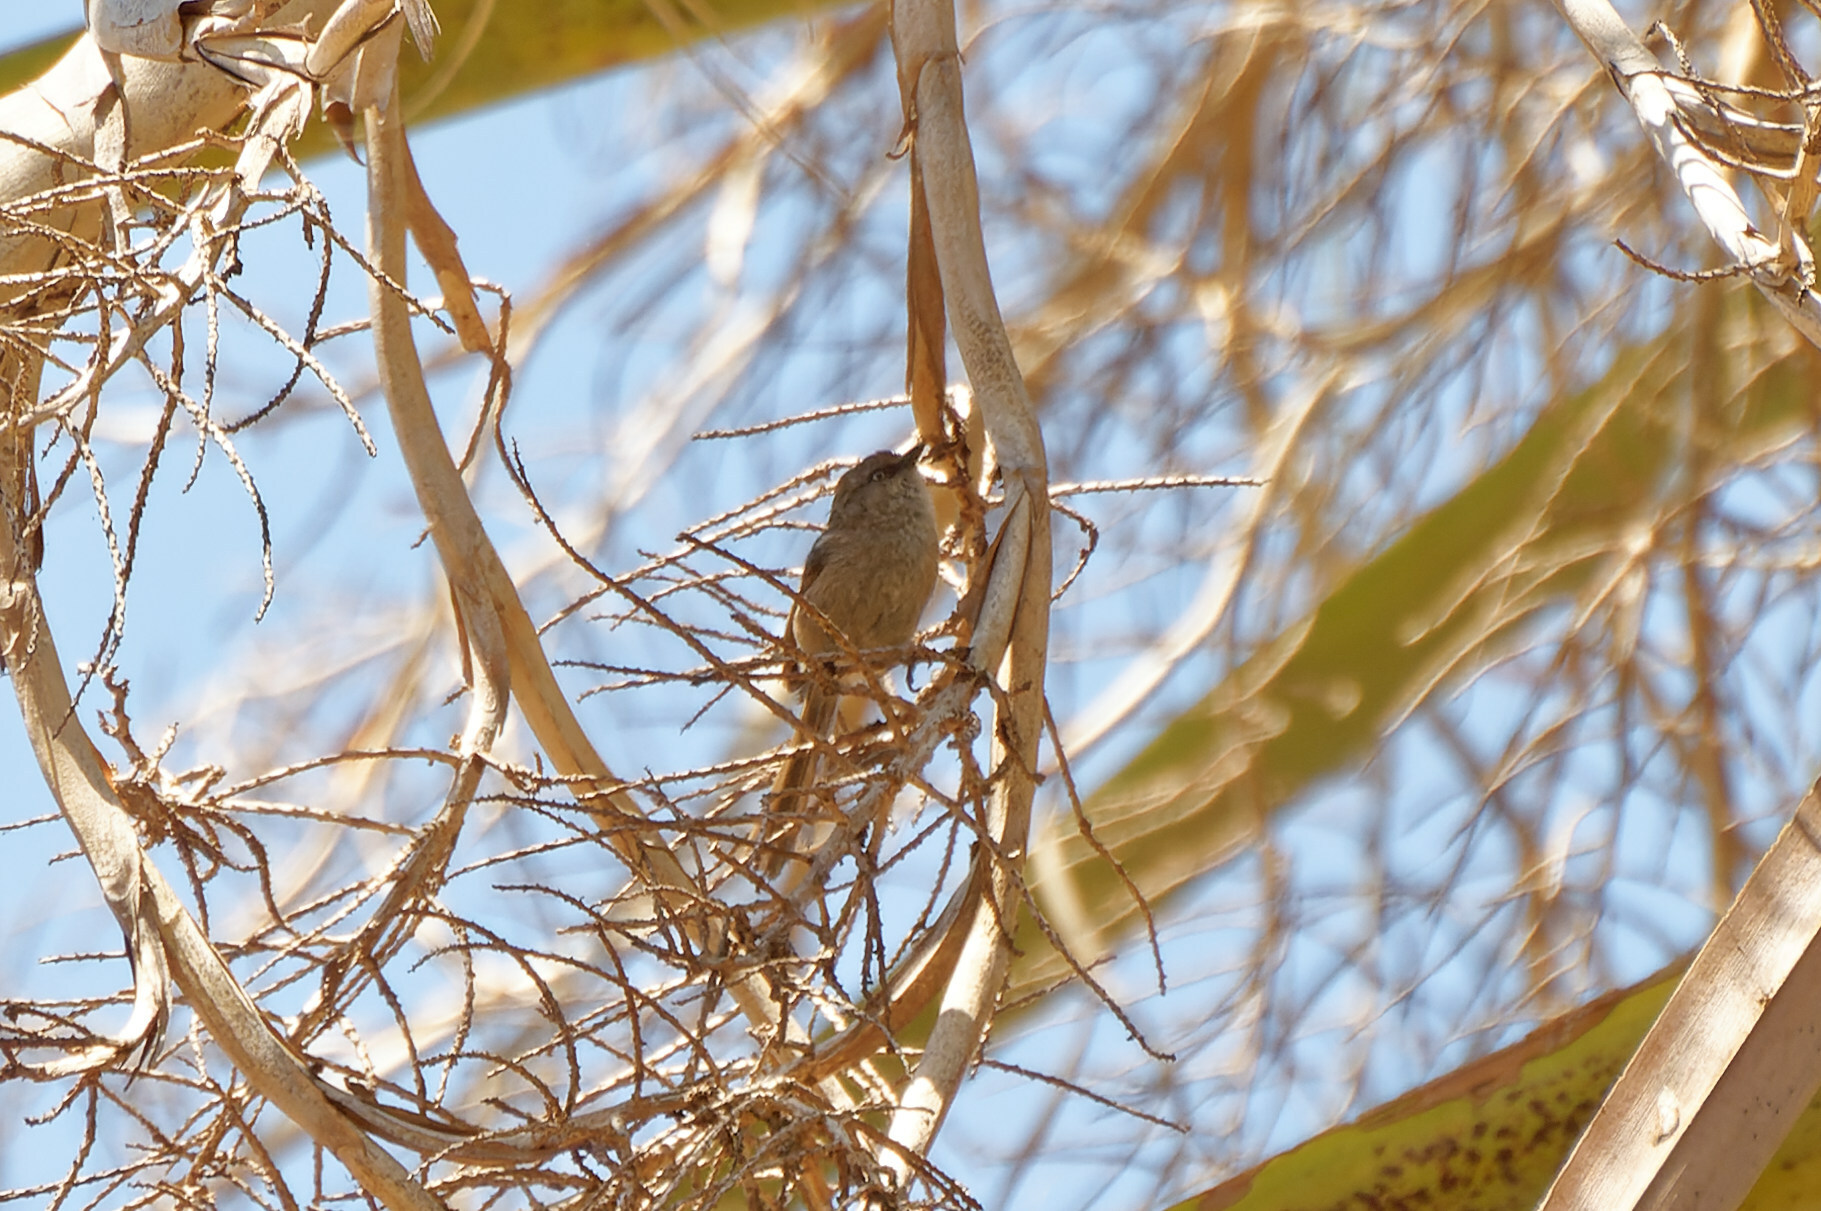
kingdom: Animalia
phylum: Chordata
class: Aves
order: Passeriformes
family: Aegithalidae
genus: Psaltriparus
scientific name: Psaltriparus minimus
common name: American bushtit
